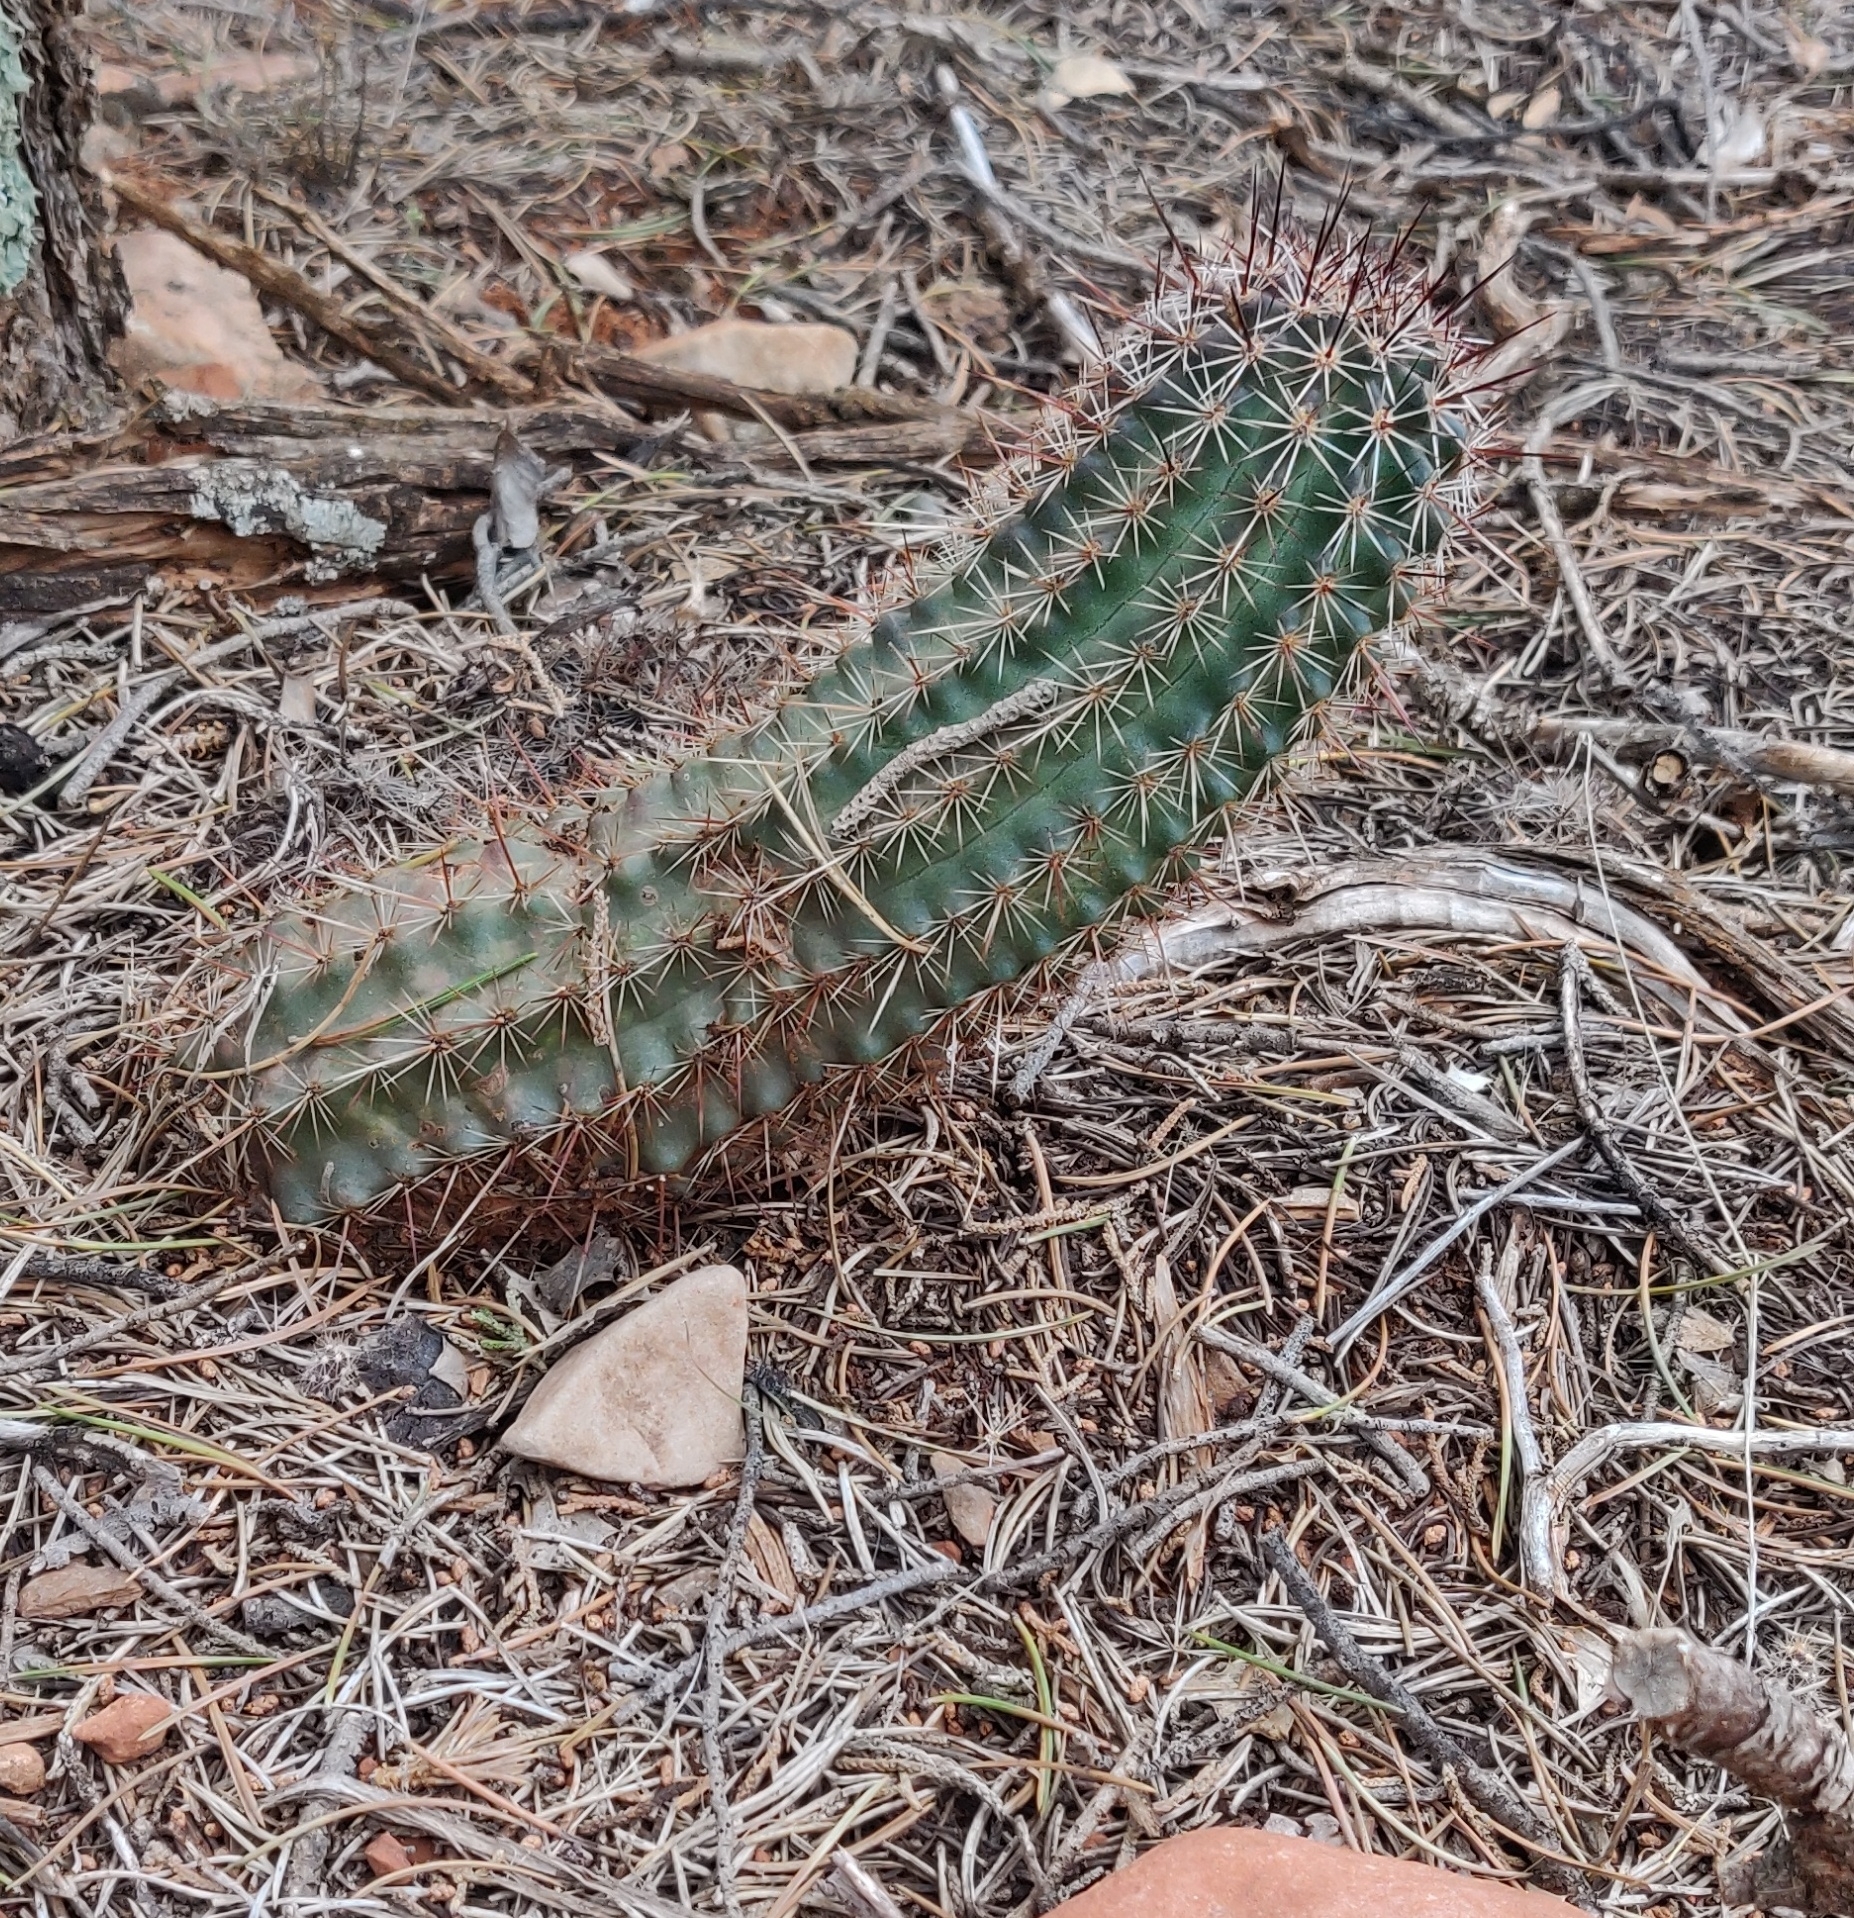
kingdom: Plantae
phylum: Tracheophyta
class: Magnoliopsida
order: Caryophyllales
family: Cactaceae
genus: Echinocereus
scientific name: Echinocereus fasciculatus
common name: Bundle hedgehog
